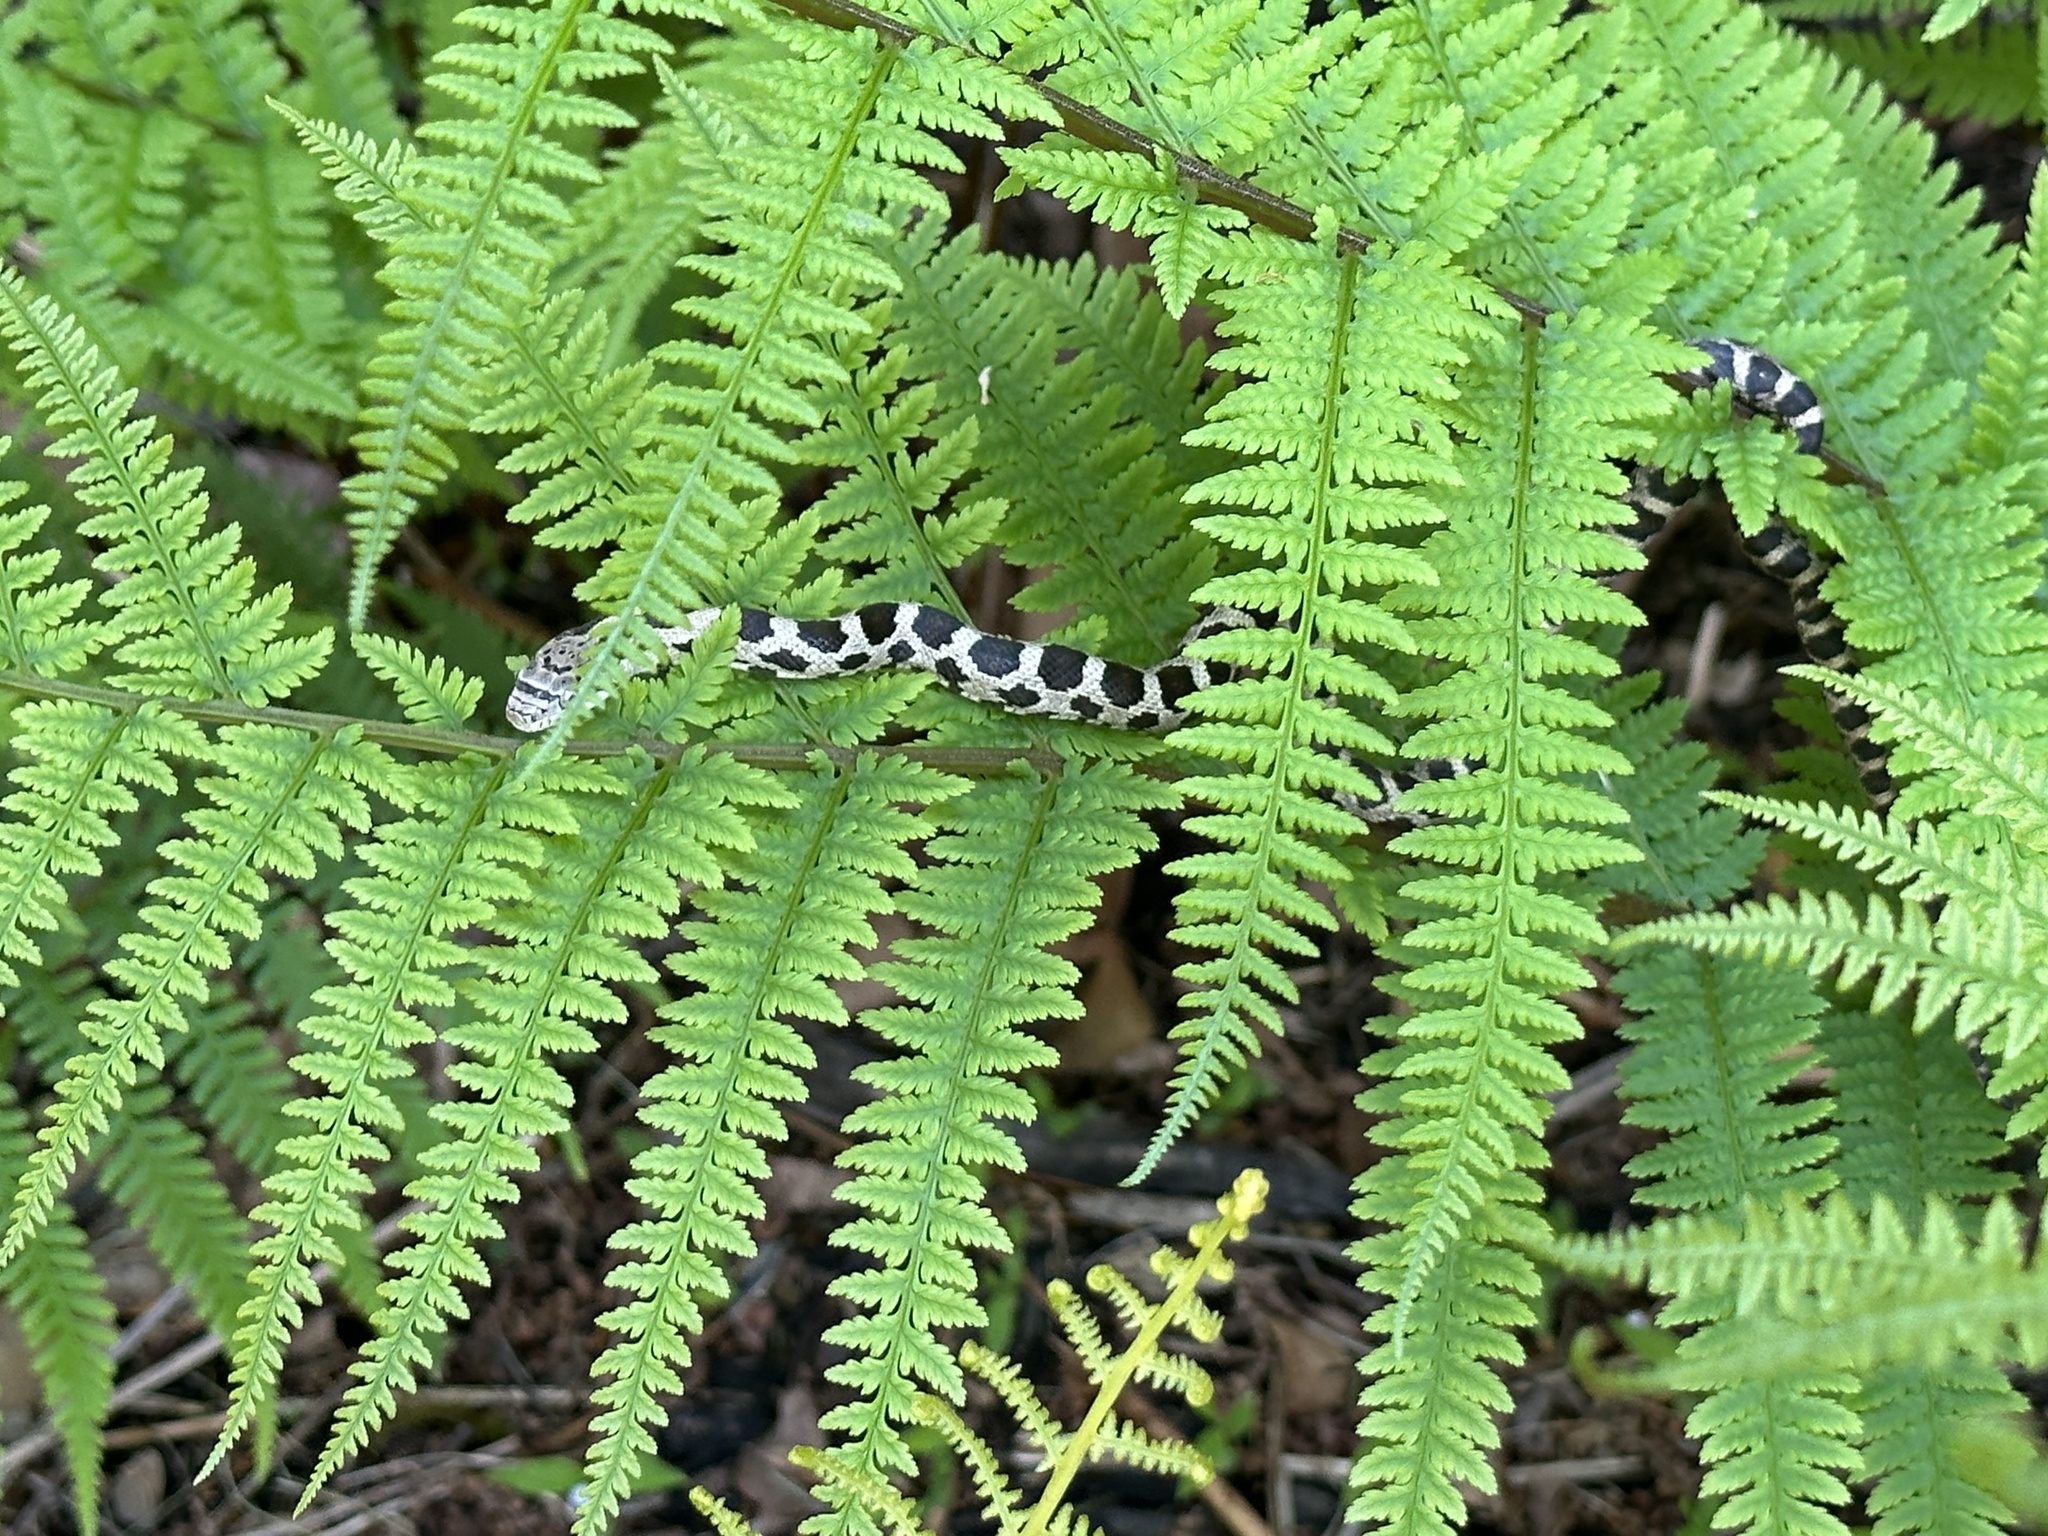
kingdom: Animalia
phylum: Chordata
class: Squamata
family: Colubridae
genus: Pantherophis
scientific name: Pantherophis spiloides
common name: Gray rat snake
